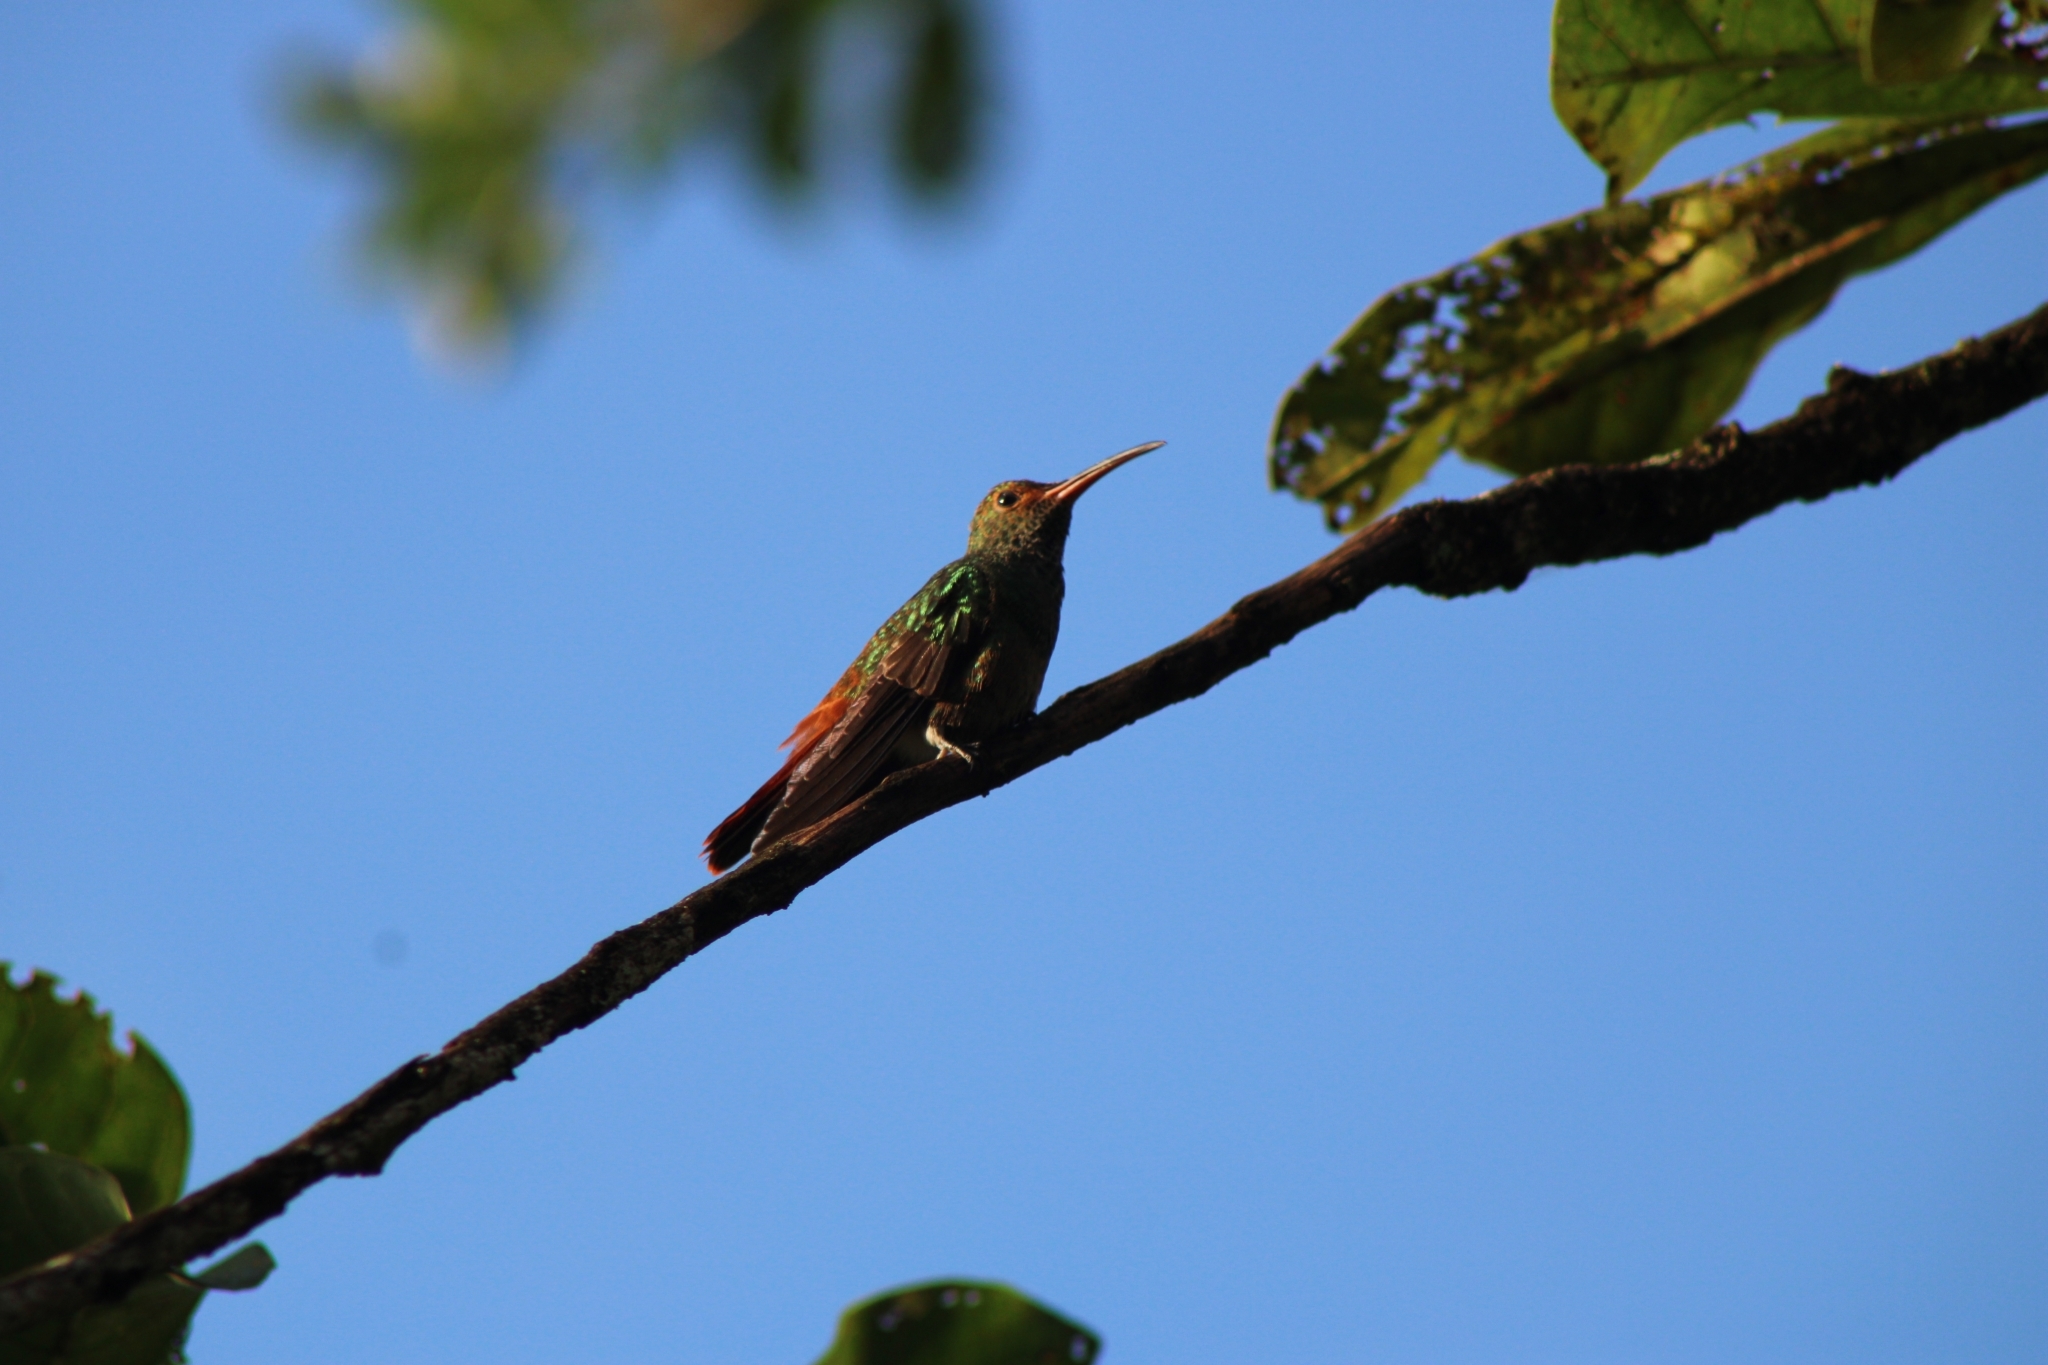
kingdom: Animalia
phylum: Chordata
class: Aves
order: Apodiformes
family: Trochilidae
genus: Amazilia
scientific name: Amazilia tzacatl
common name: Rufous-tailed hummingbird
